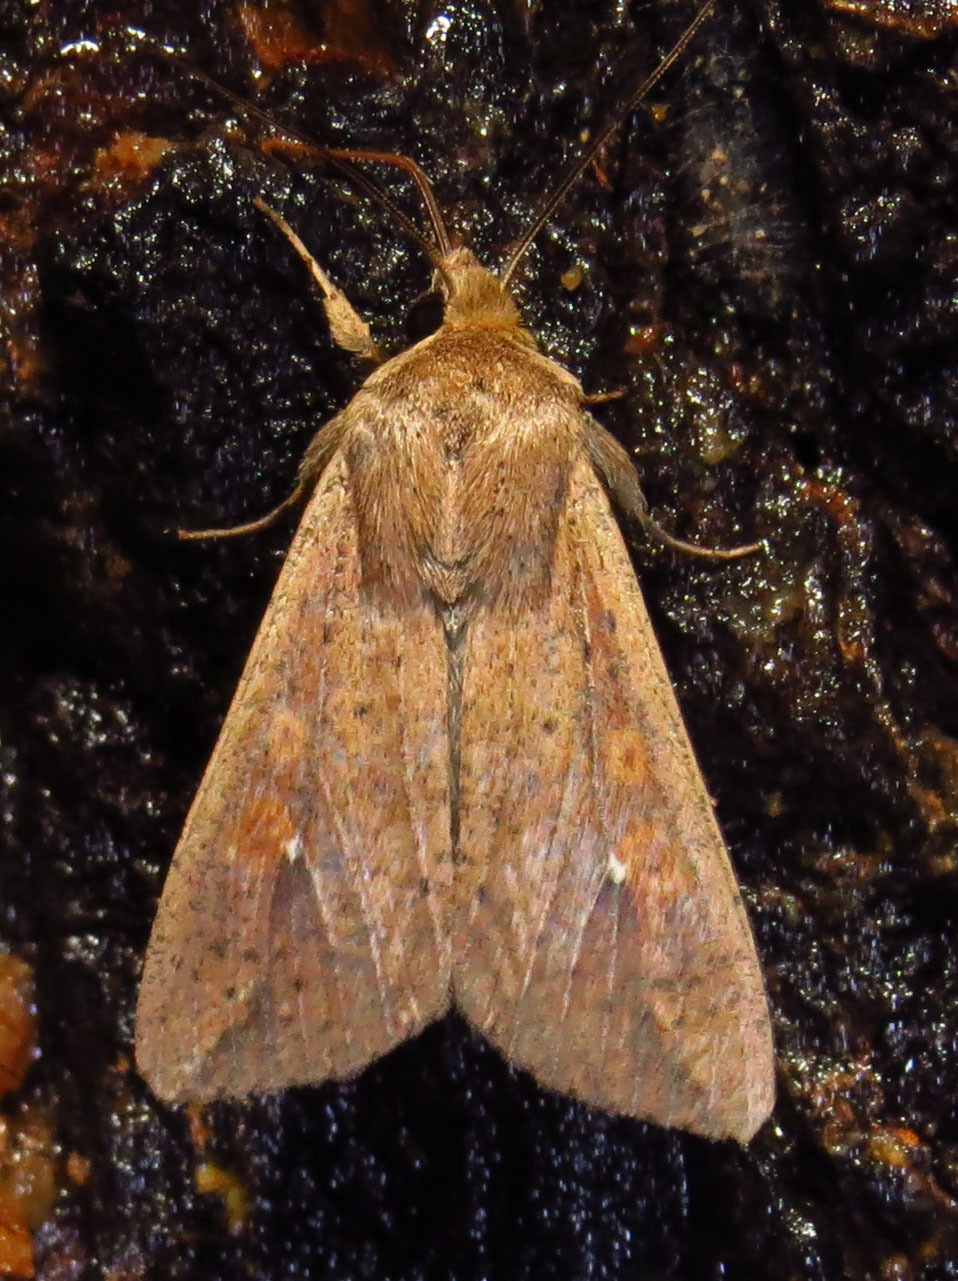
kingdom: Animalia
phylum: Arthropoda
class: Insecta
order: Lepidoptera
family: Noctuidae
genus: Mythimna
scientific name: Mythimna unipuncta
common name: White-speck
